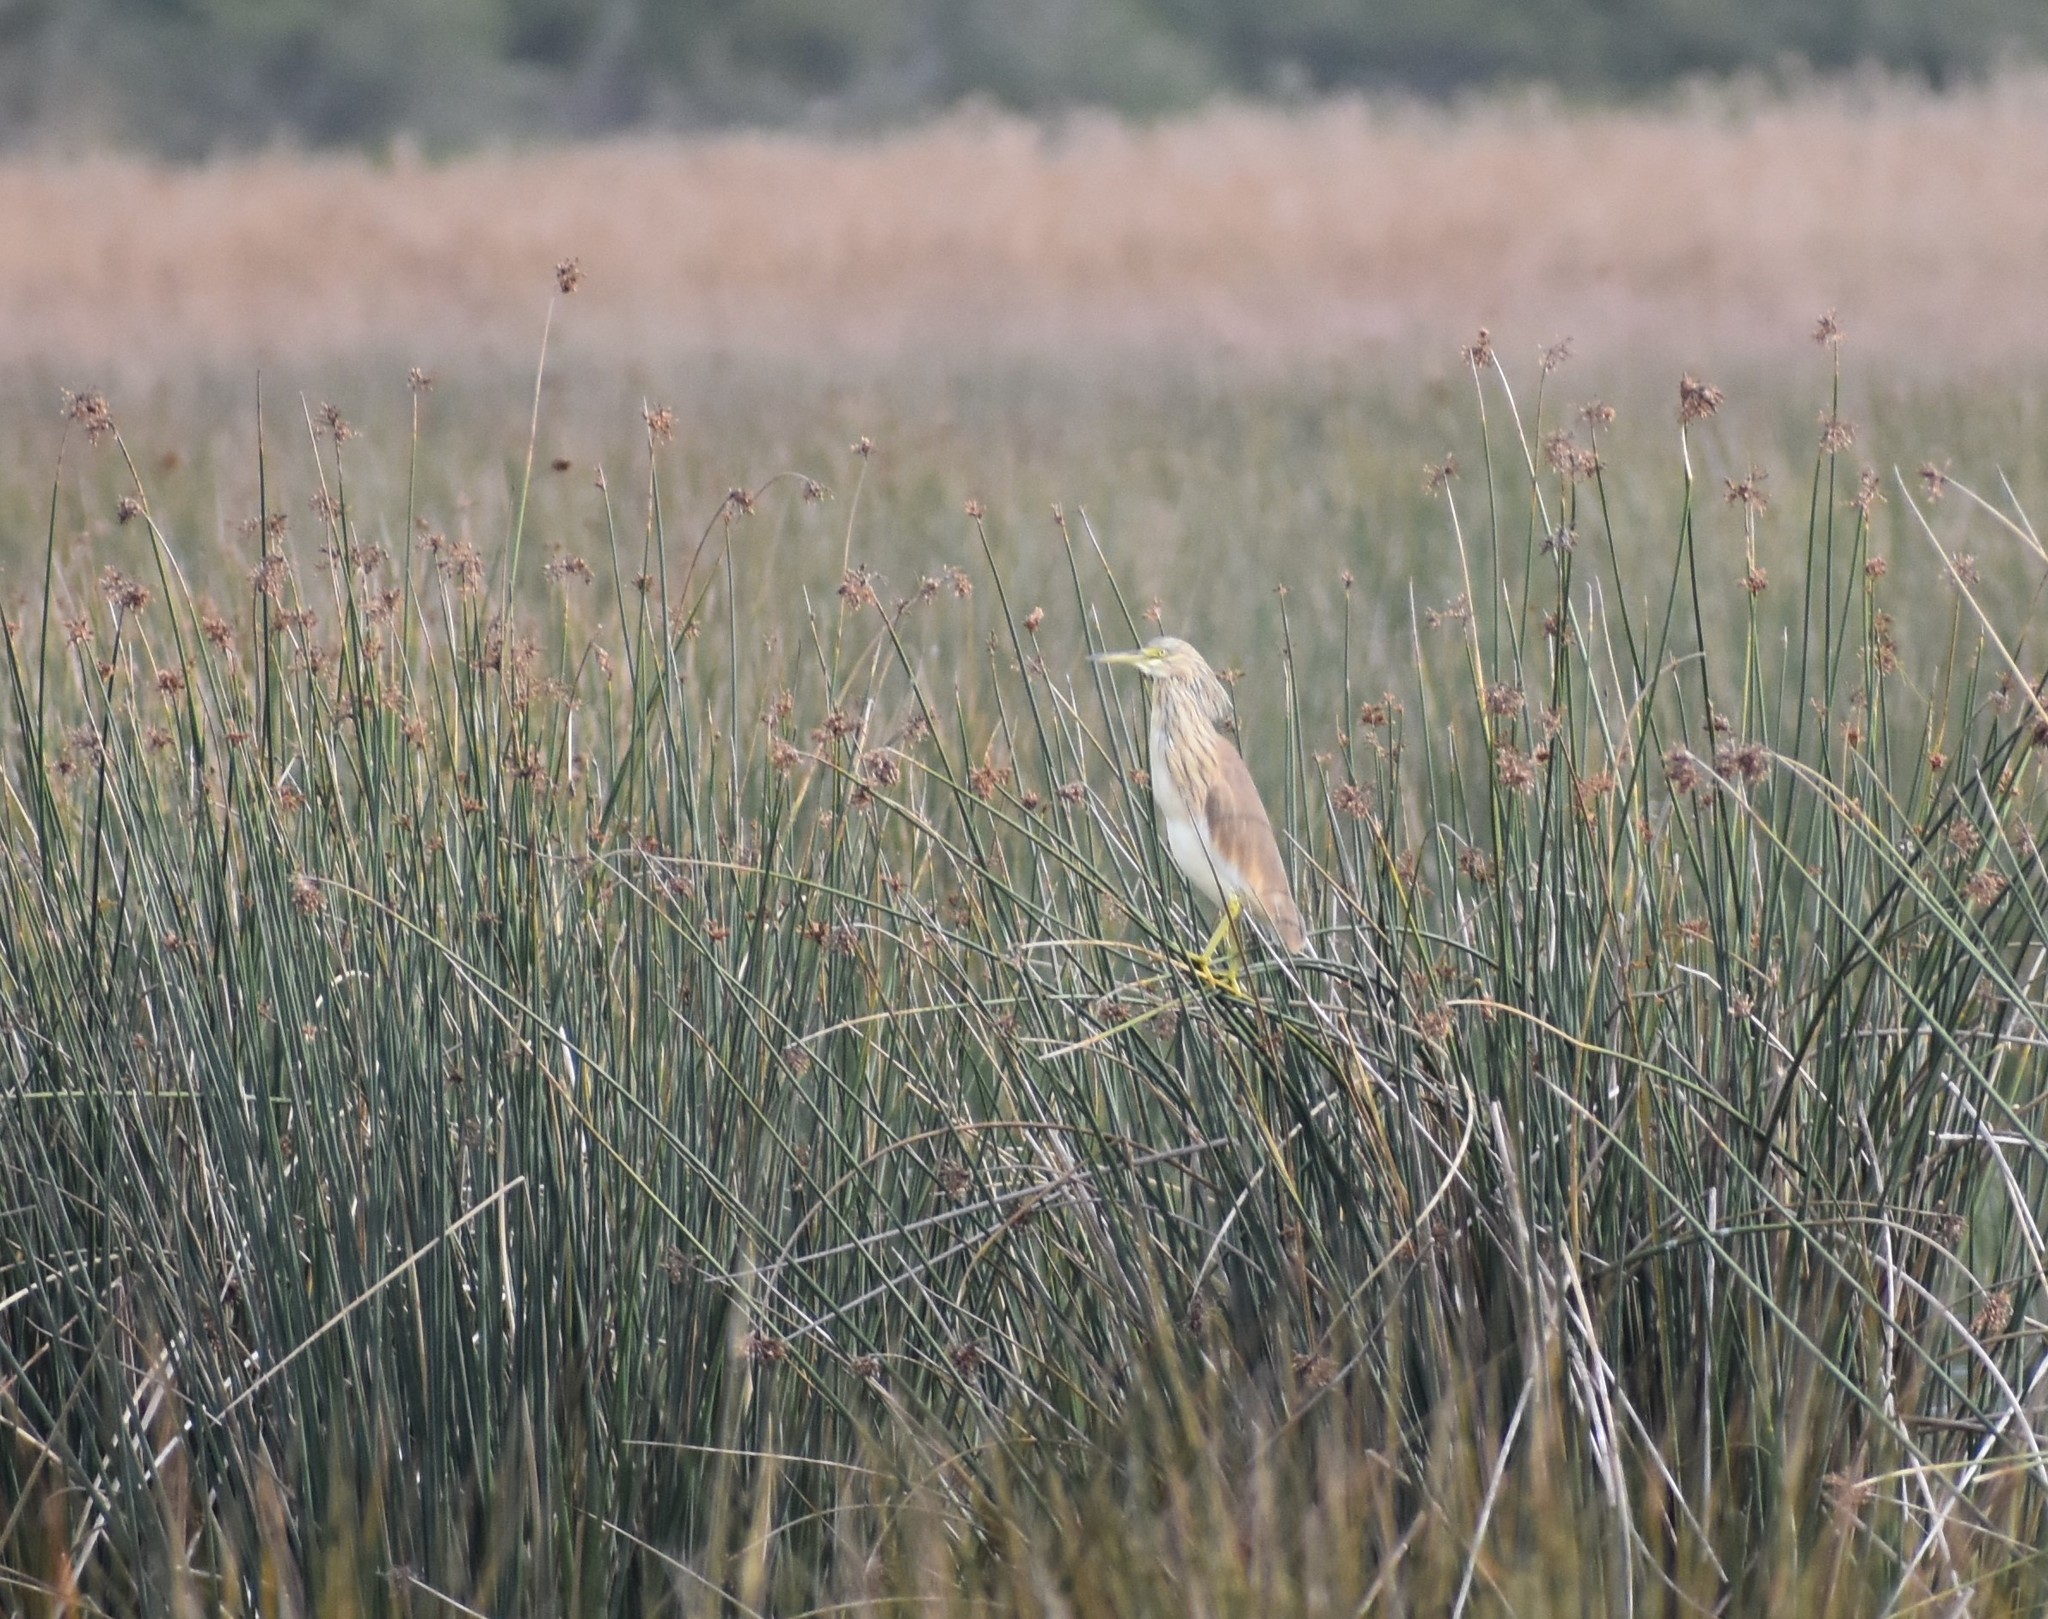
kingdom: Animalia
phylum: Chordata
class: Aves
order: Pelecaniformes
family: Ardeidae
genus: Ardeola
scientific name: Ardeola ralloides
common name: Squacco heron
